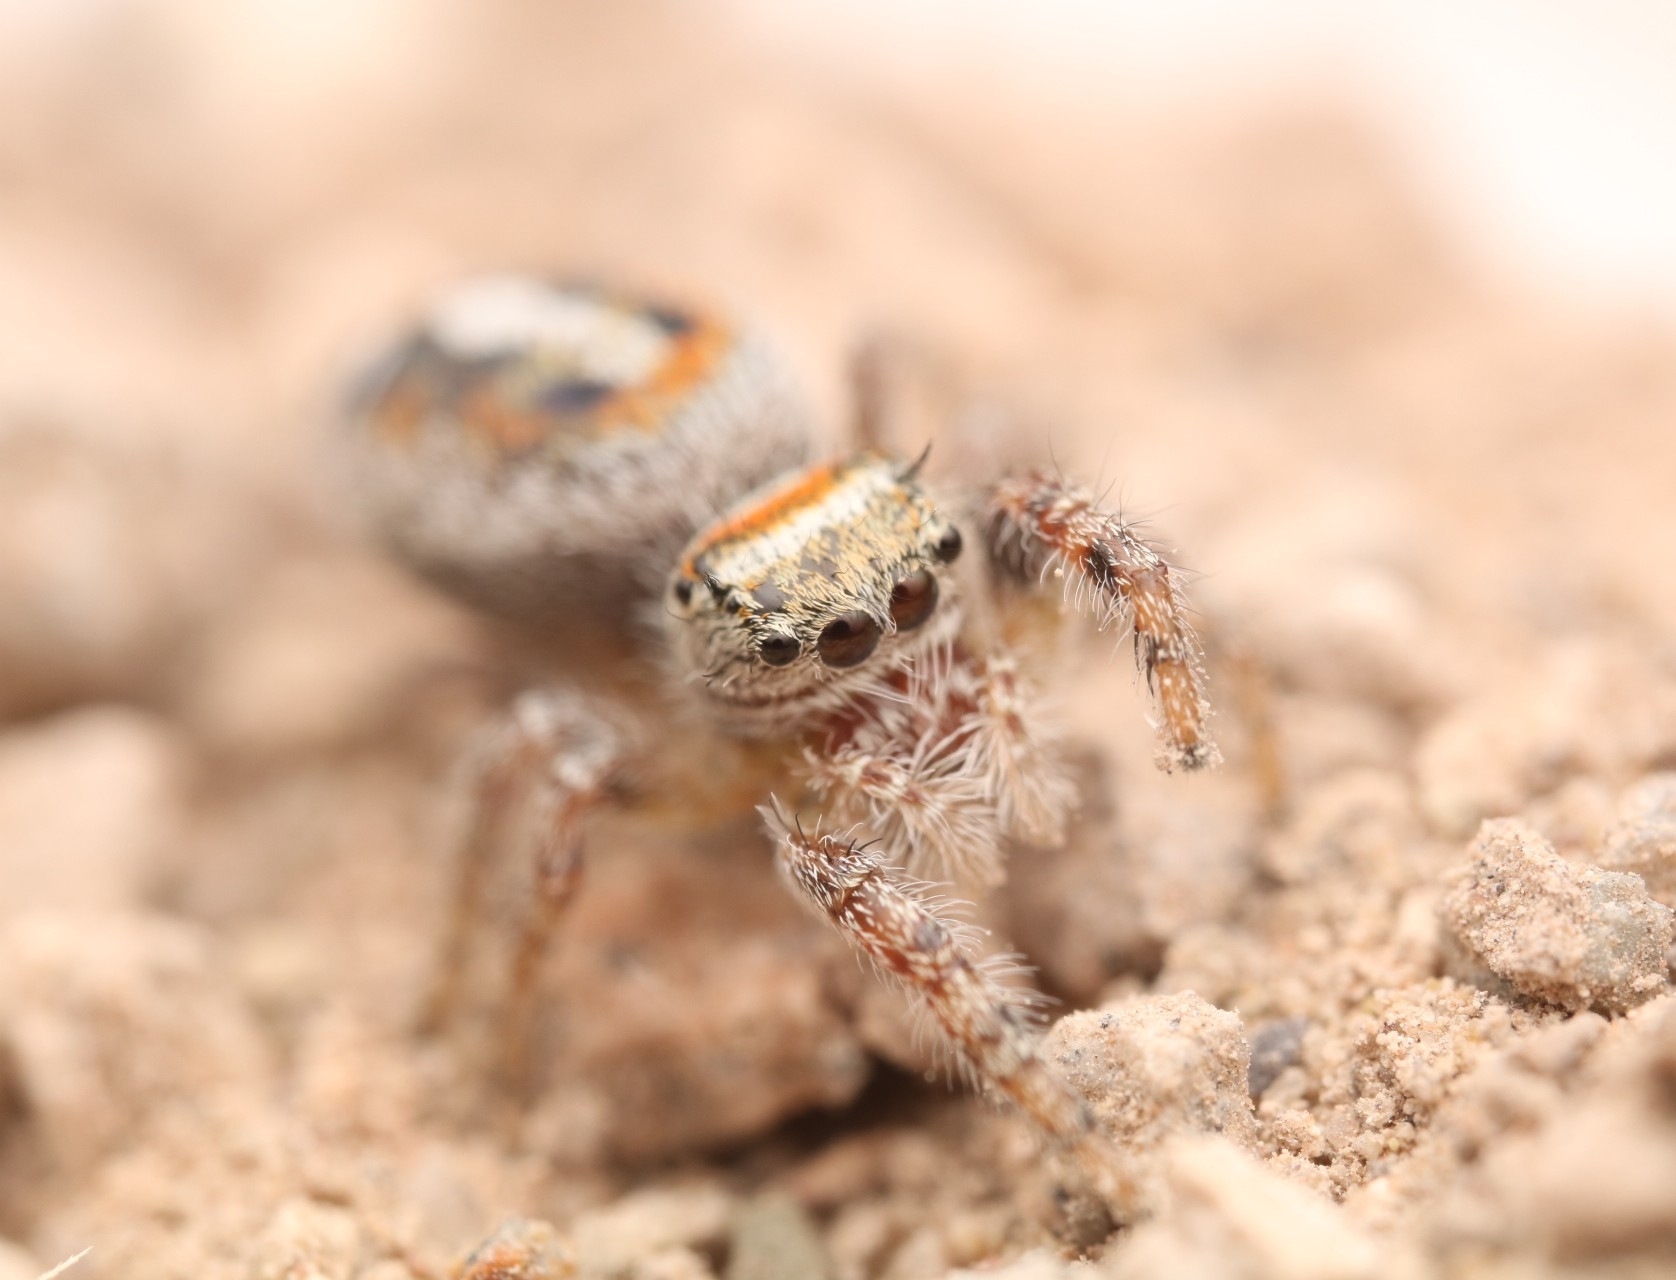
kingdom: Animalia
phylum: Arthropoda
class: Arachnida
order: Araneae
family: Salticidae
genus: Phidippus
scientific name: Phidippus vexans
